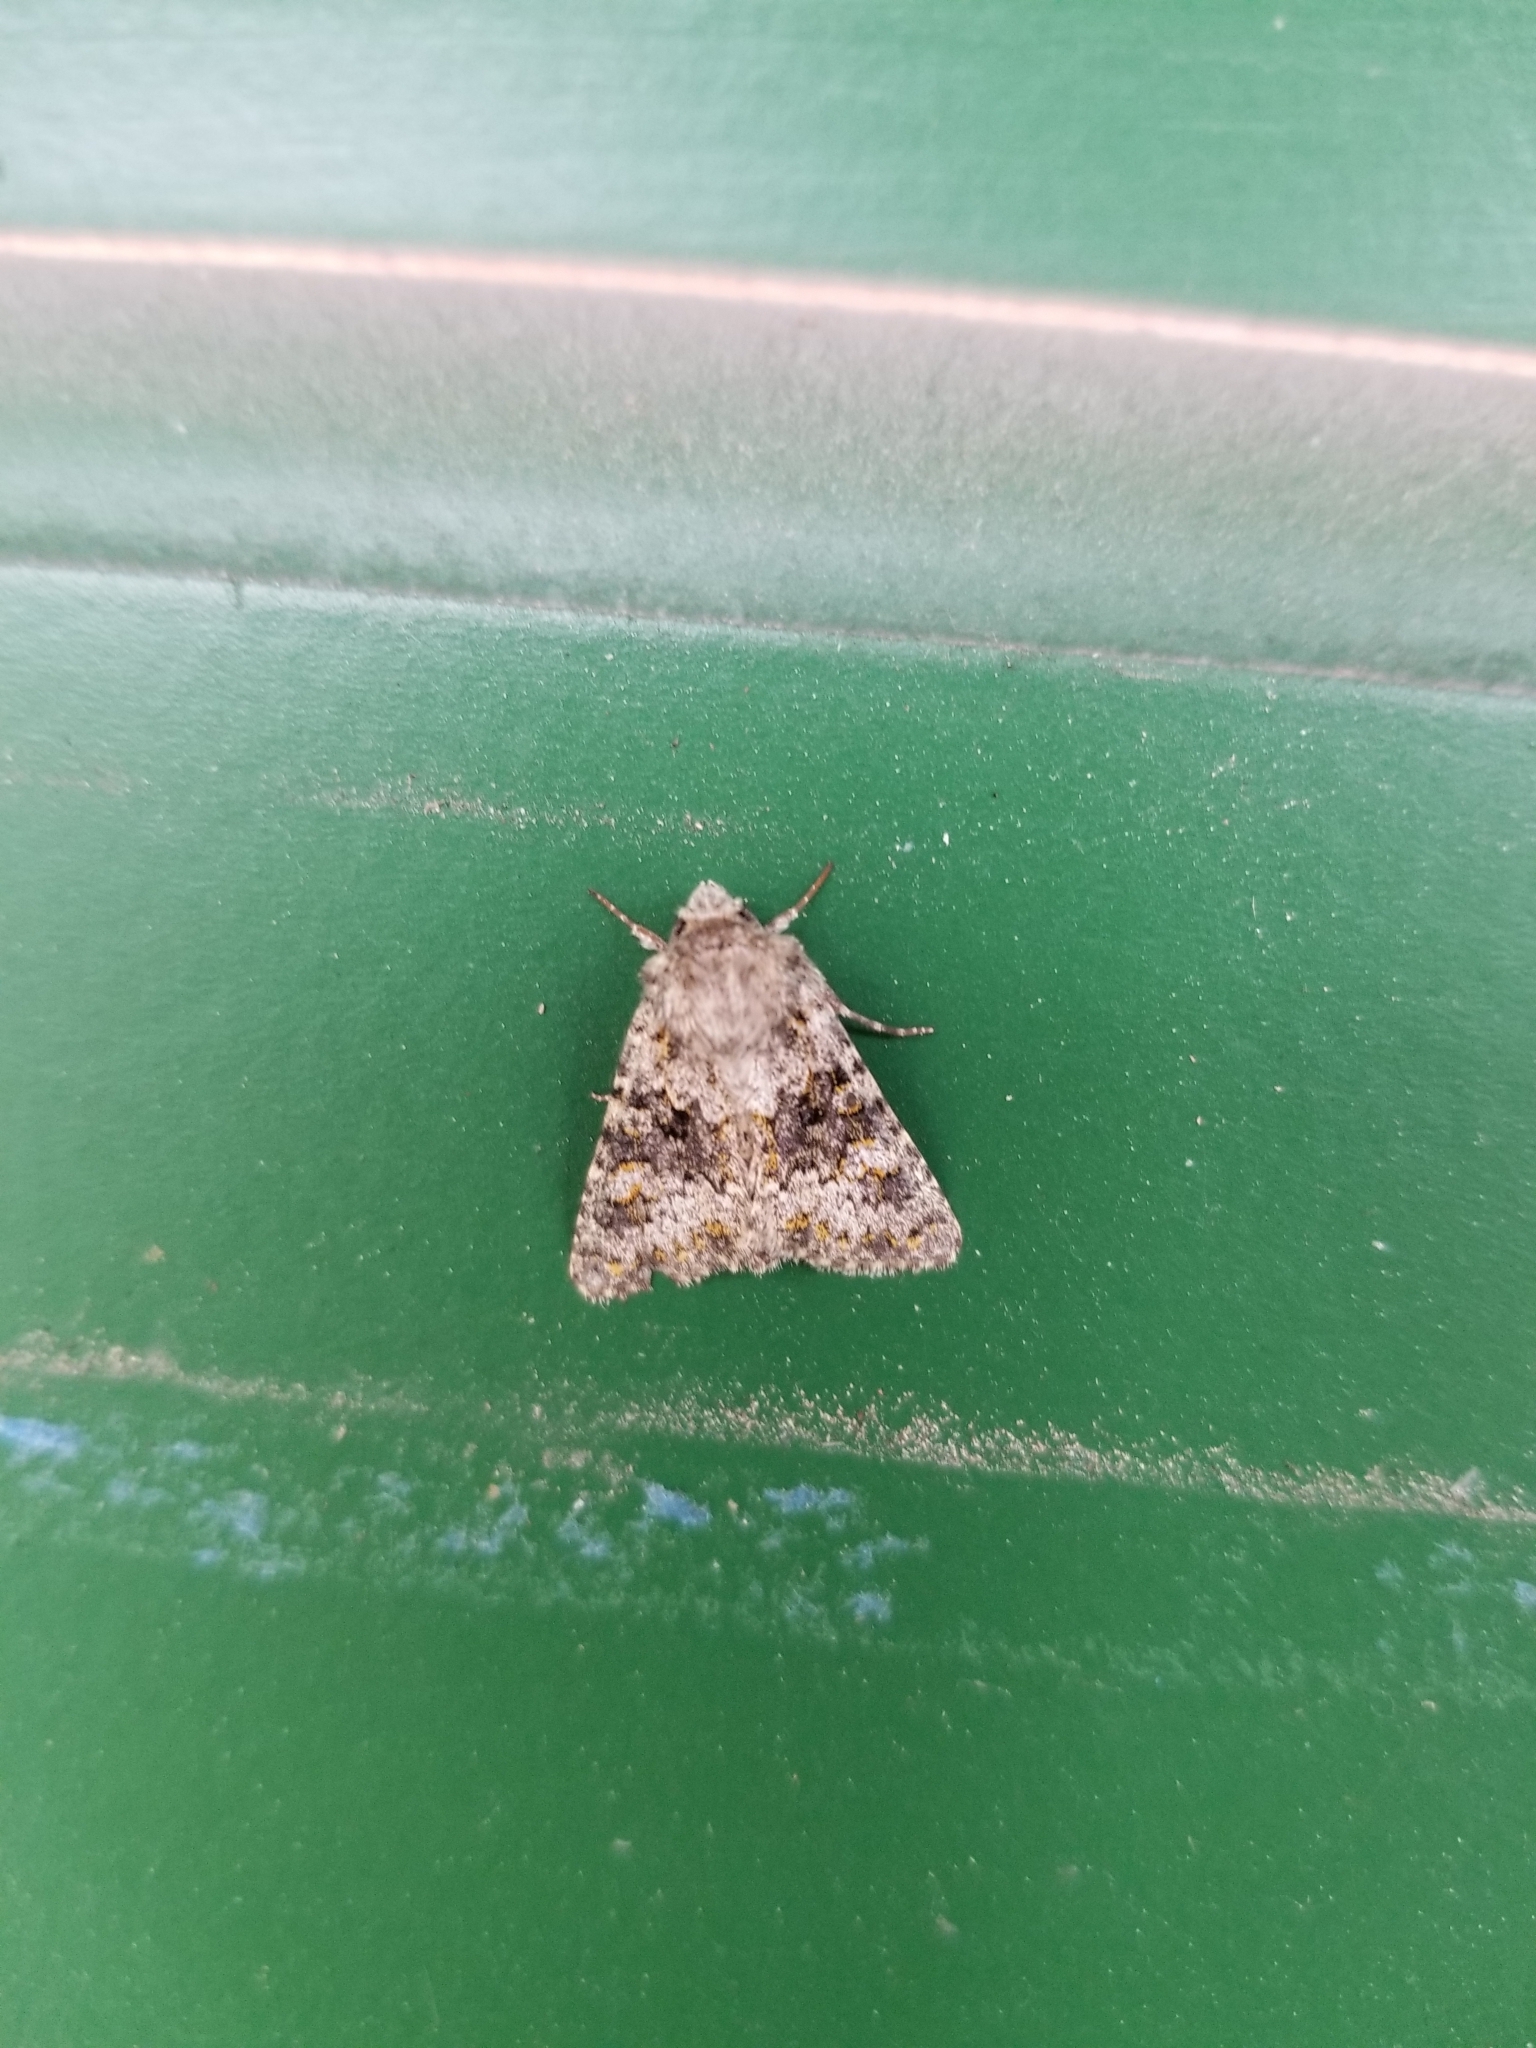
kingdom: Animalia
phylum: Arthropoda
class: Insecta
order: Lepidoptera
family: Noctuidae
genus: Hecatera
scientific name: Hecatera dysodea
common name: Small ranunculus
